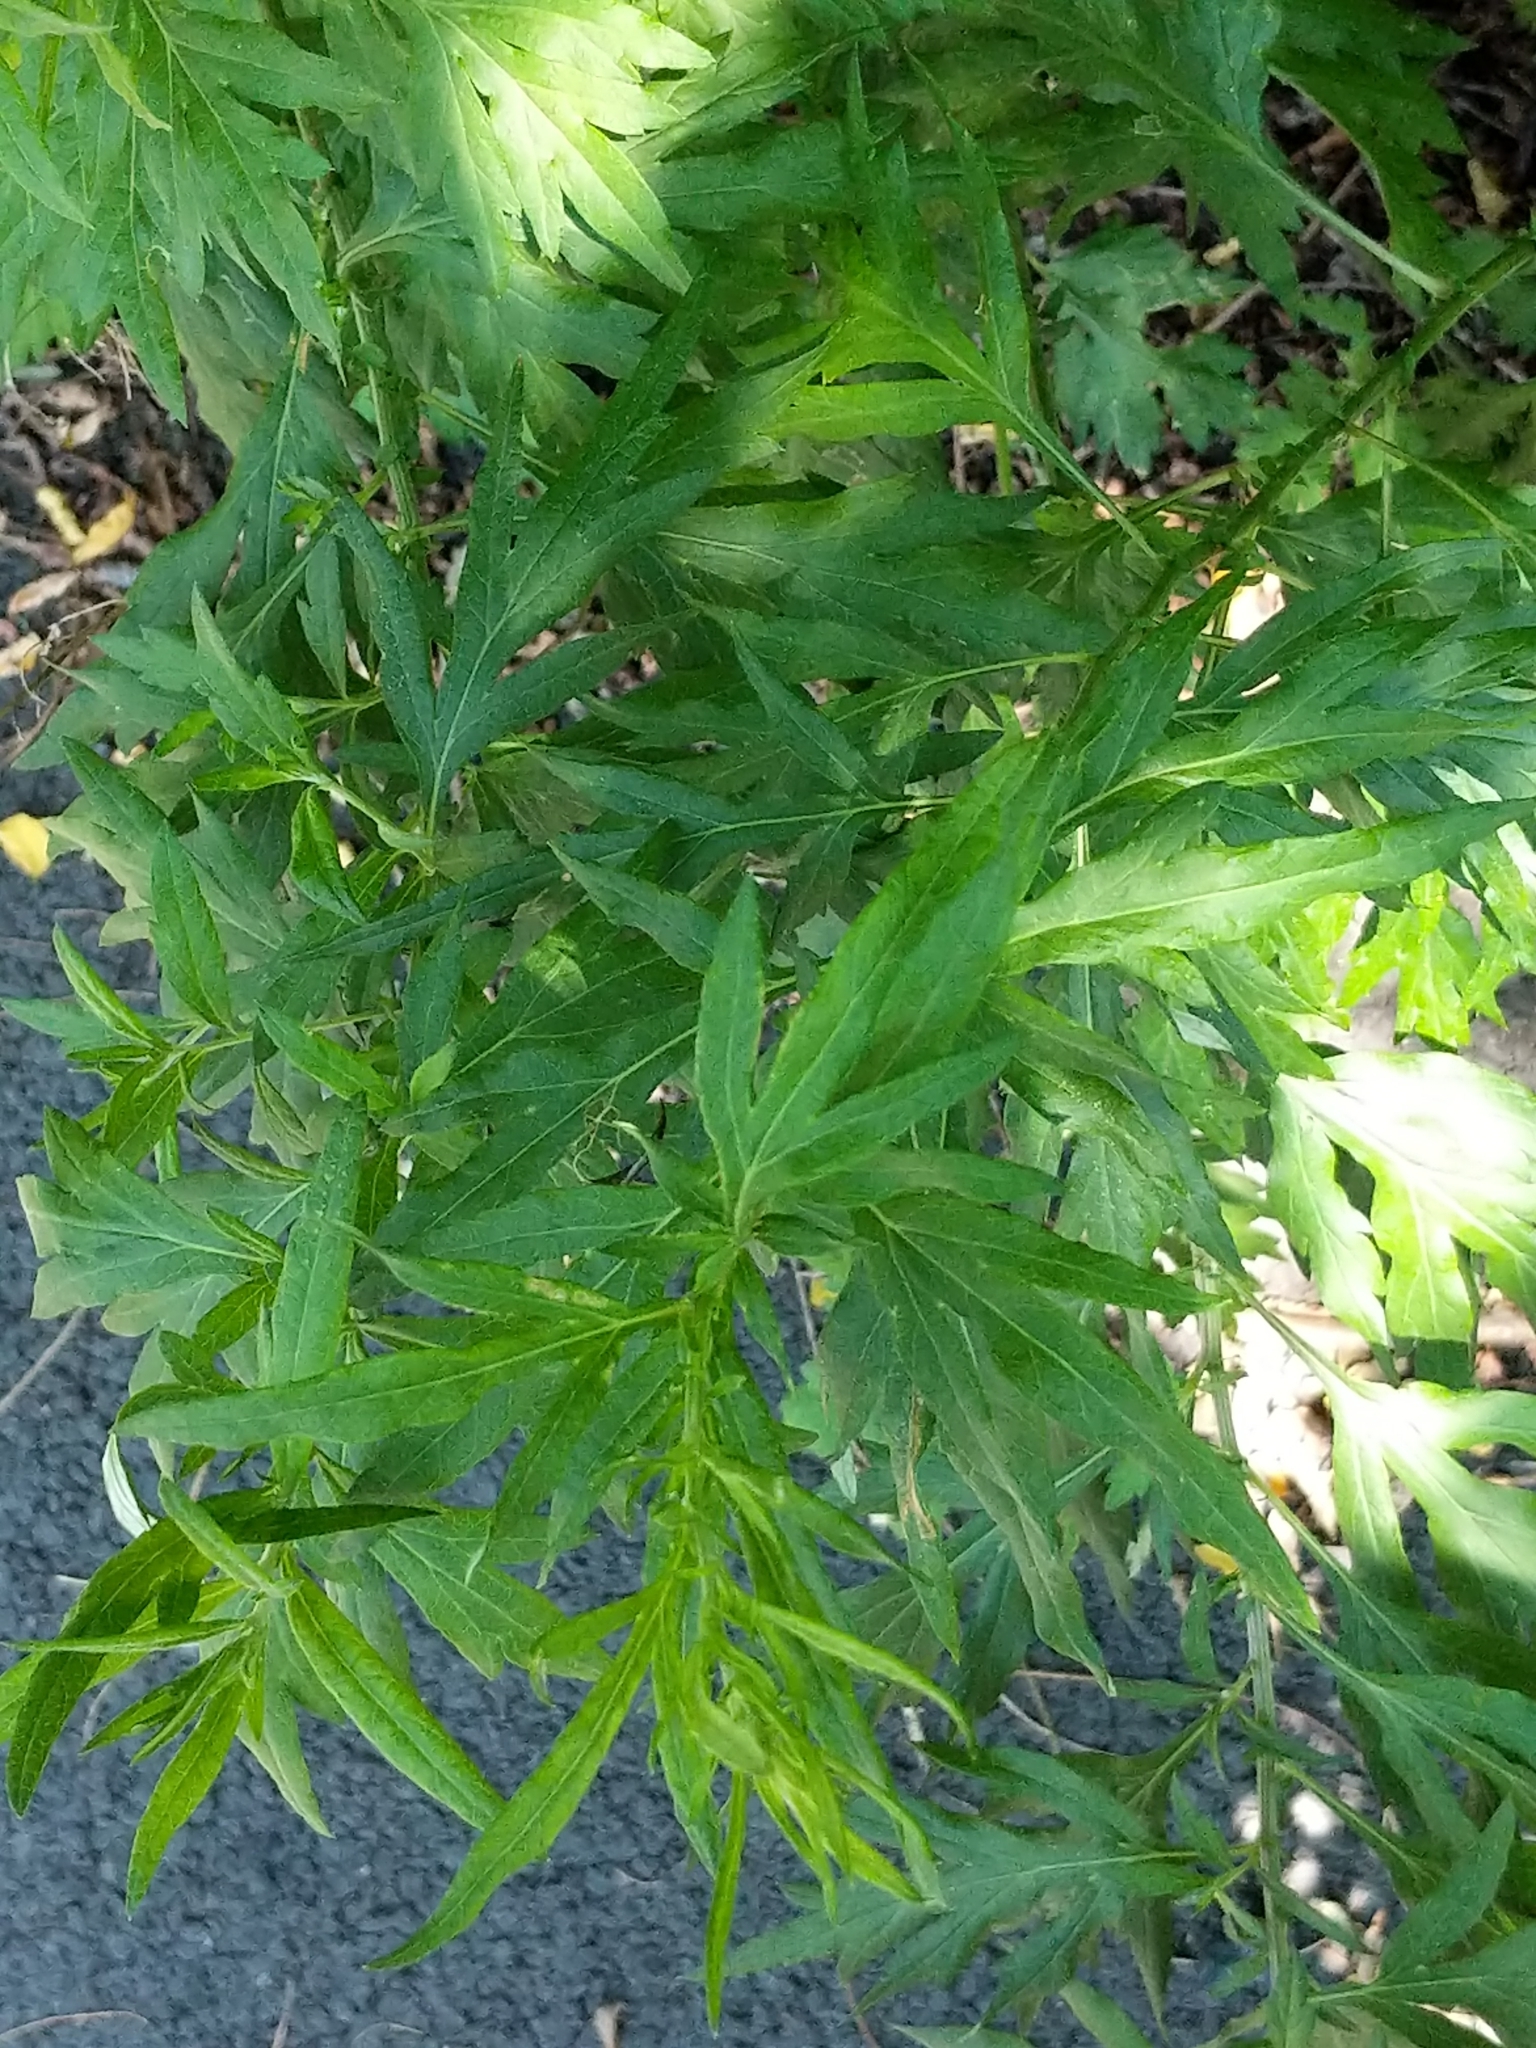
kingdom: Plantae
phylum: Tracheophyta
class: Magnoliopsida
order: Asterales
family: Asteraceae
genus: Artemisia
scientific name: Artemisia vulgaris
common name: Mugwort
